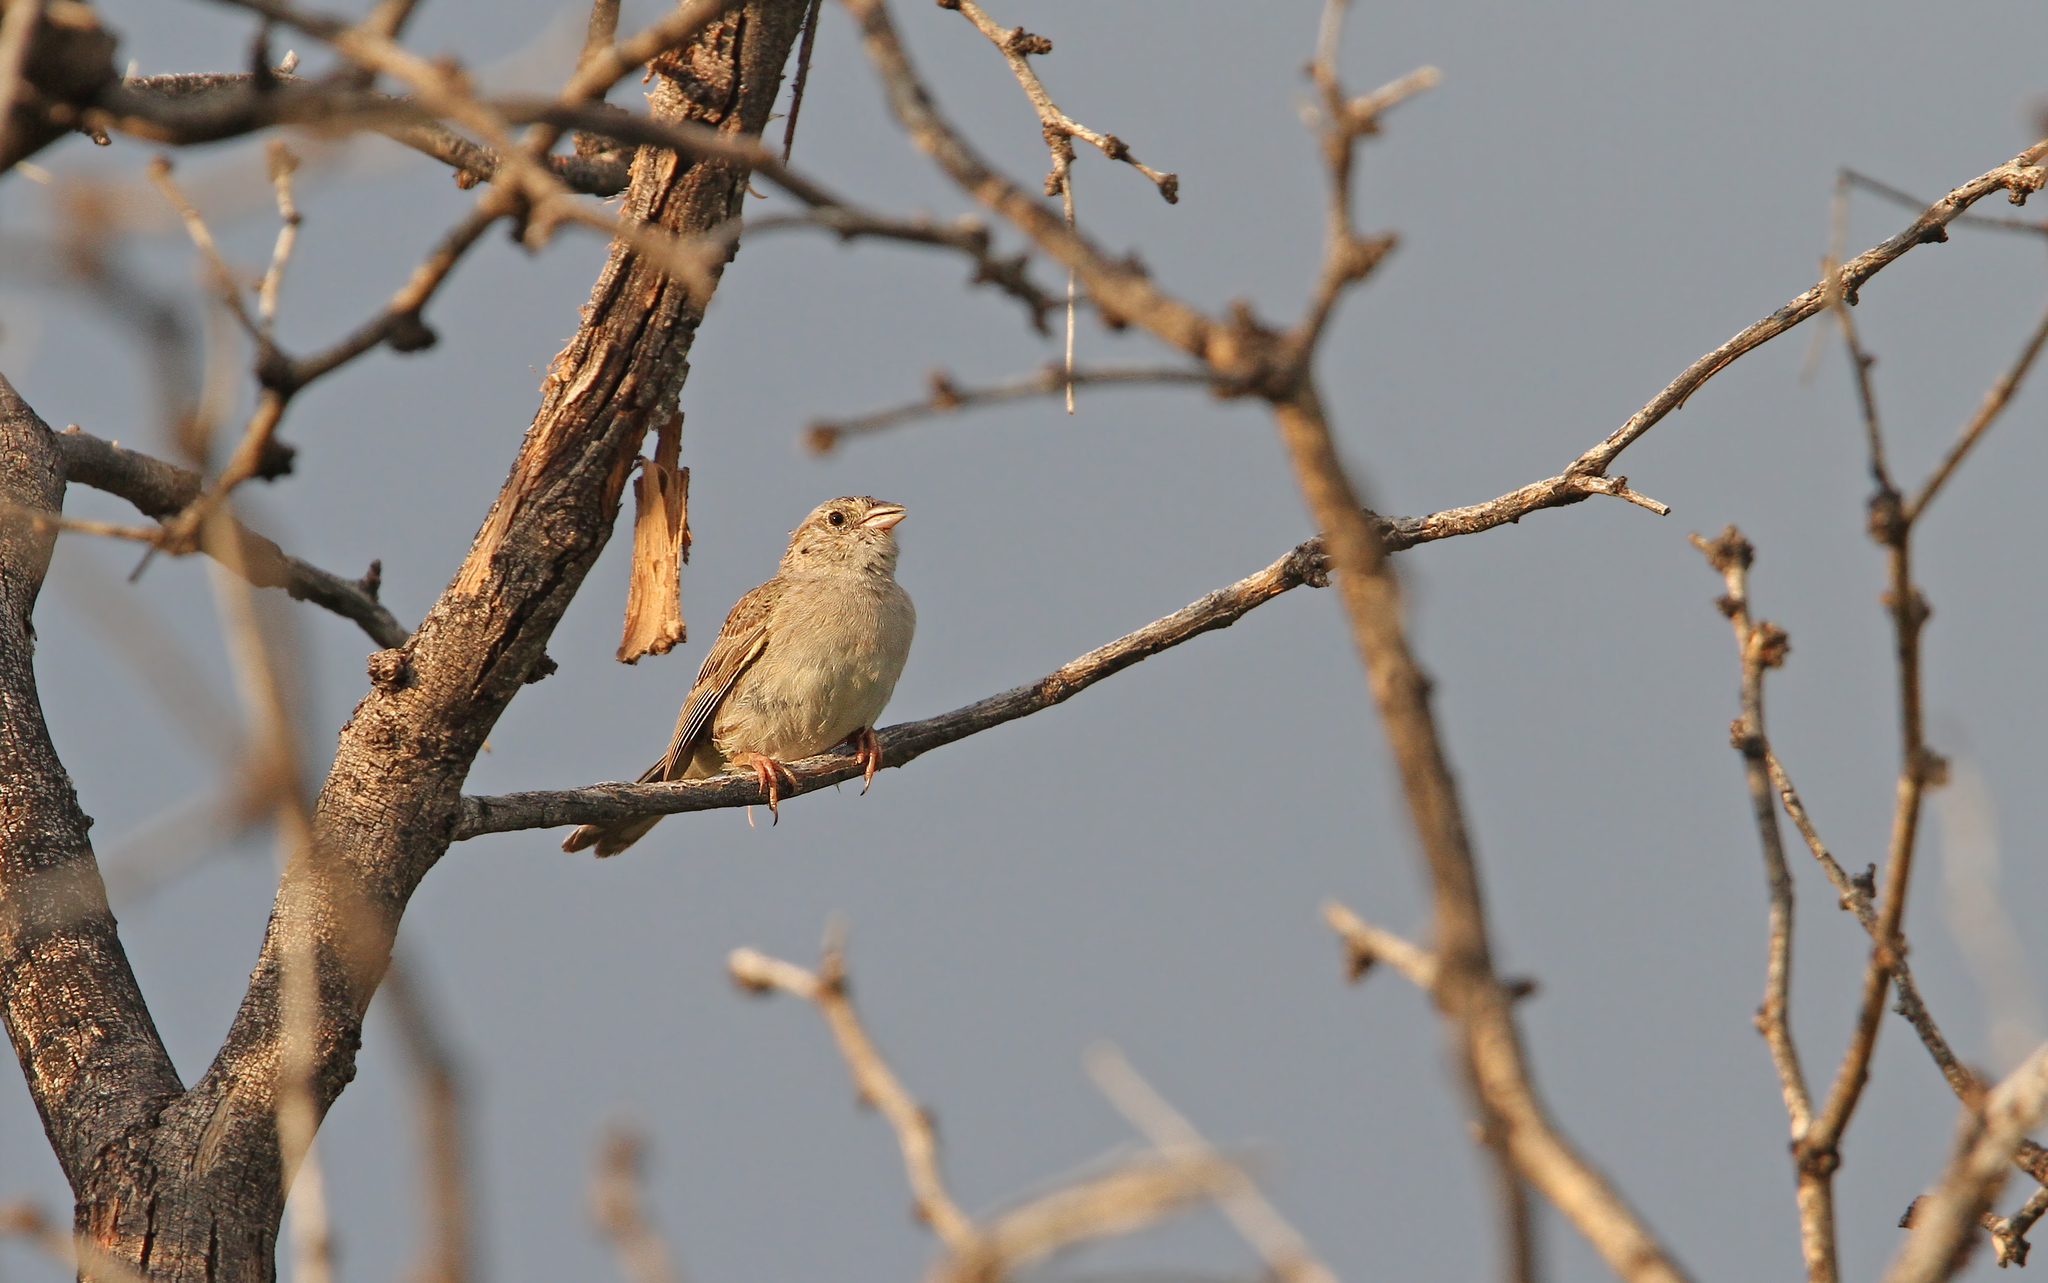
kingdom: Animalia
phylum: Chordata
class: Aves
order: Passeriformes
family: Passerellidae
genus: Peucaea
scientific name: Peucaea cassinii
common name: Cassin's sparrow
